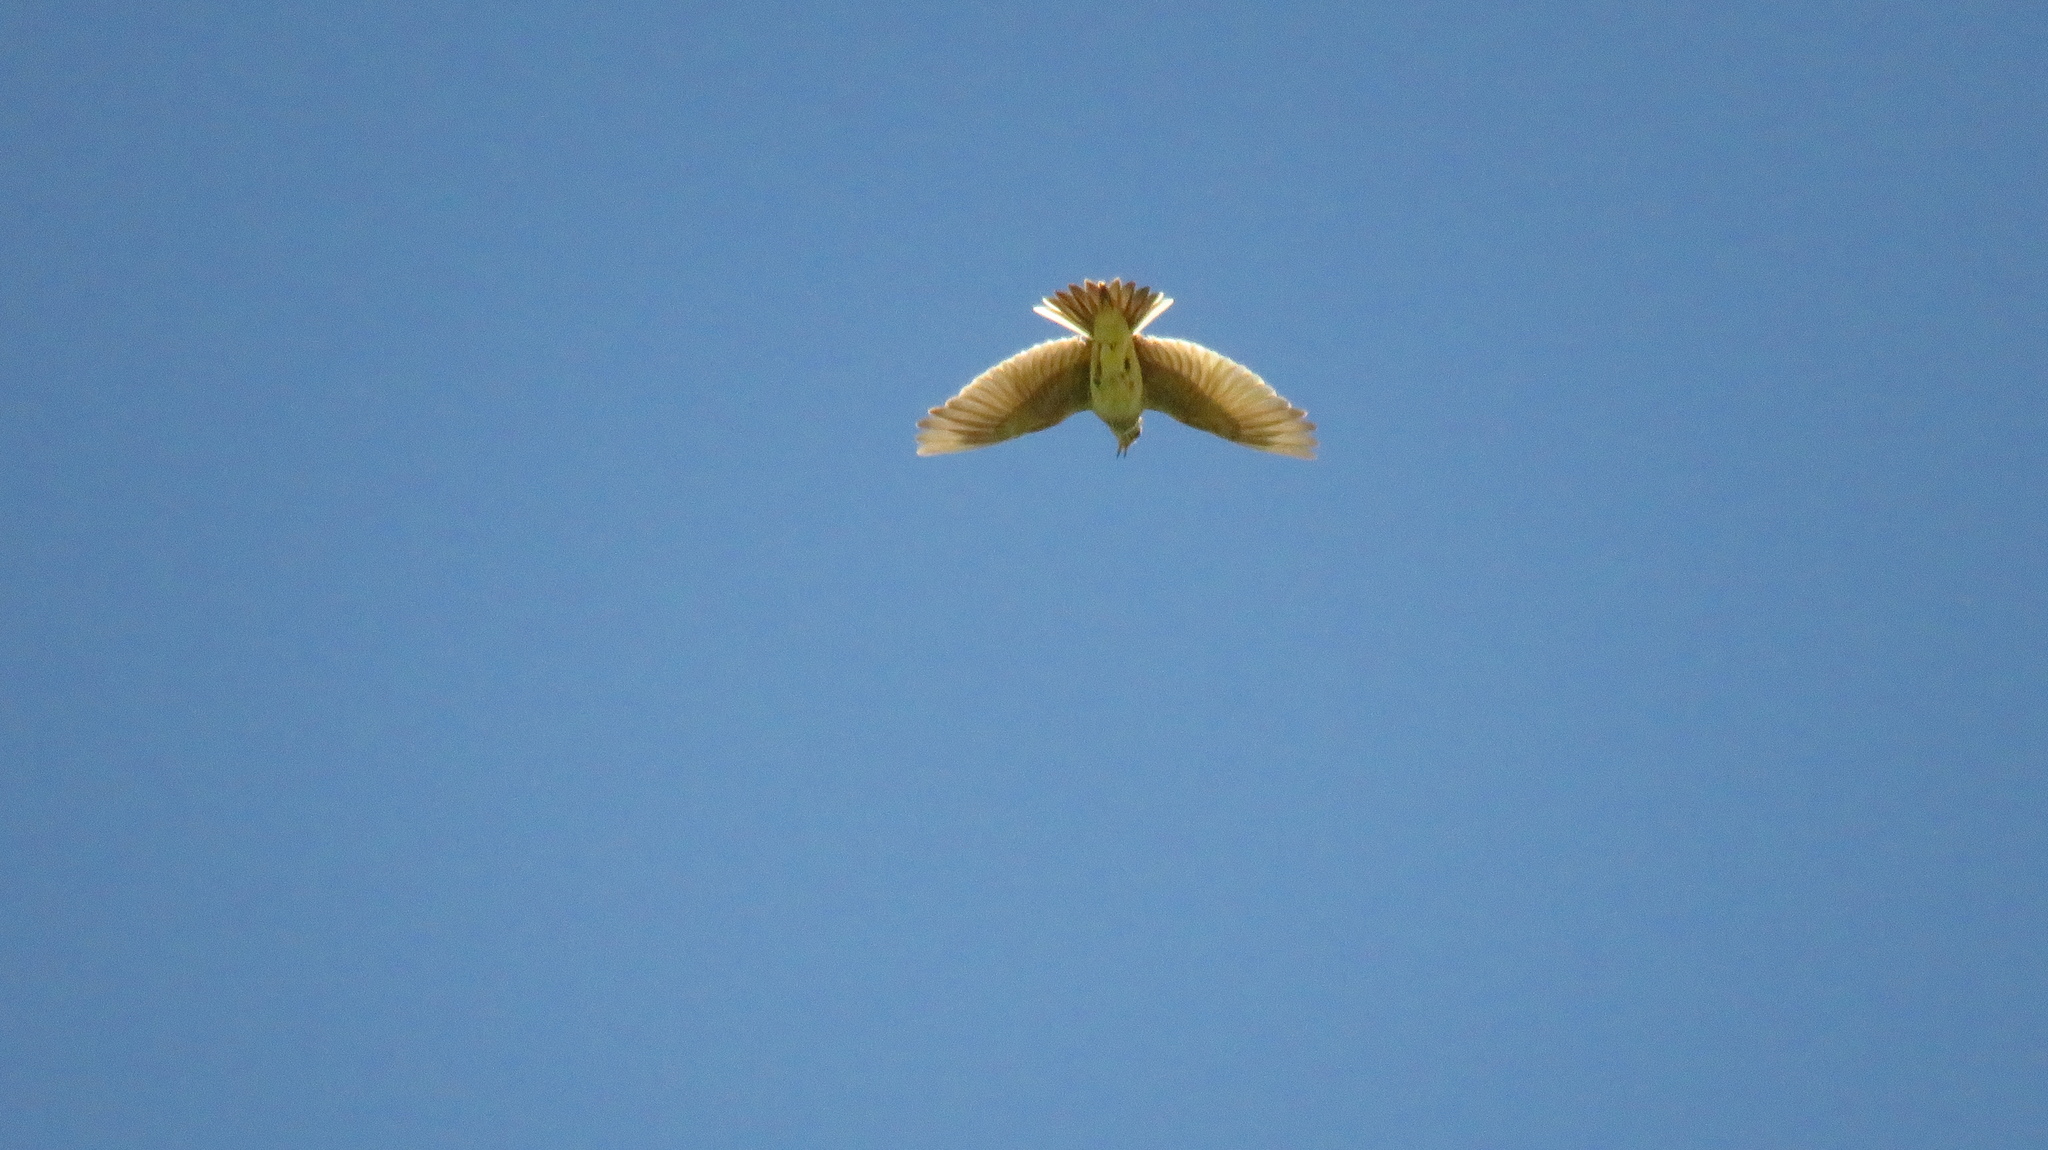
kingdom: Animalia
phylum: Chordata
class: Aves
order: Passeriformes
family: Alaudidae
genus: Alauda
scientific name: Alauda arvensis
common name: Eurasian skylark
